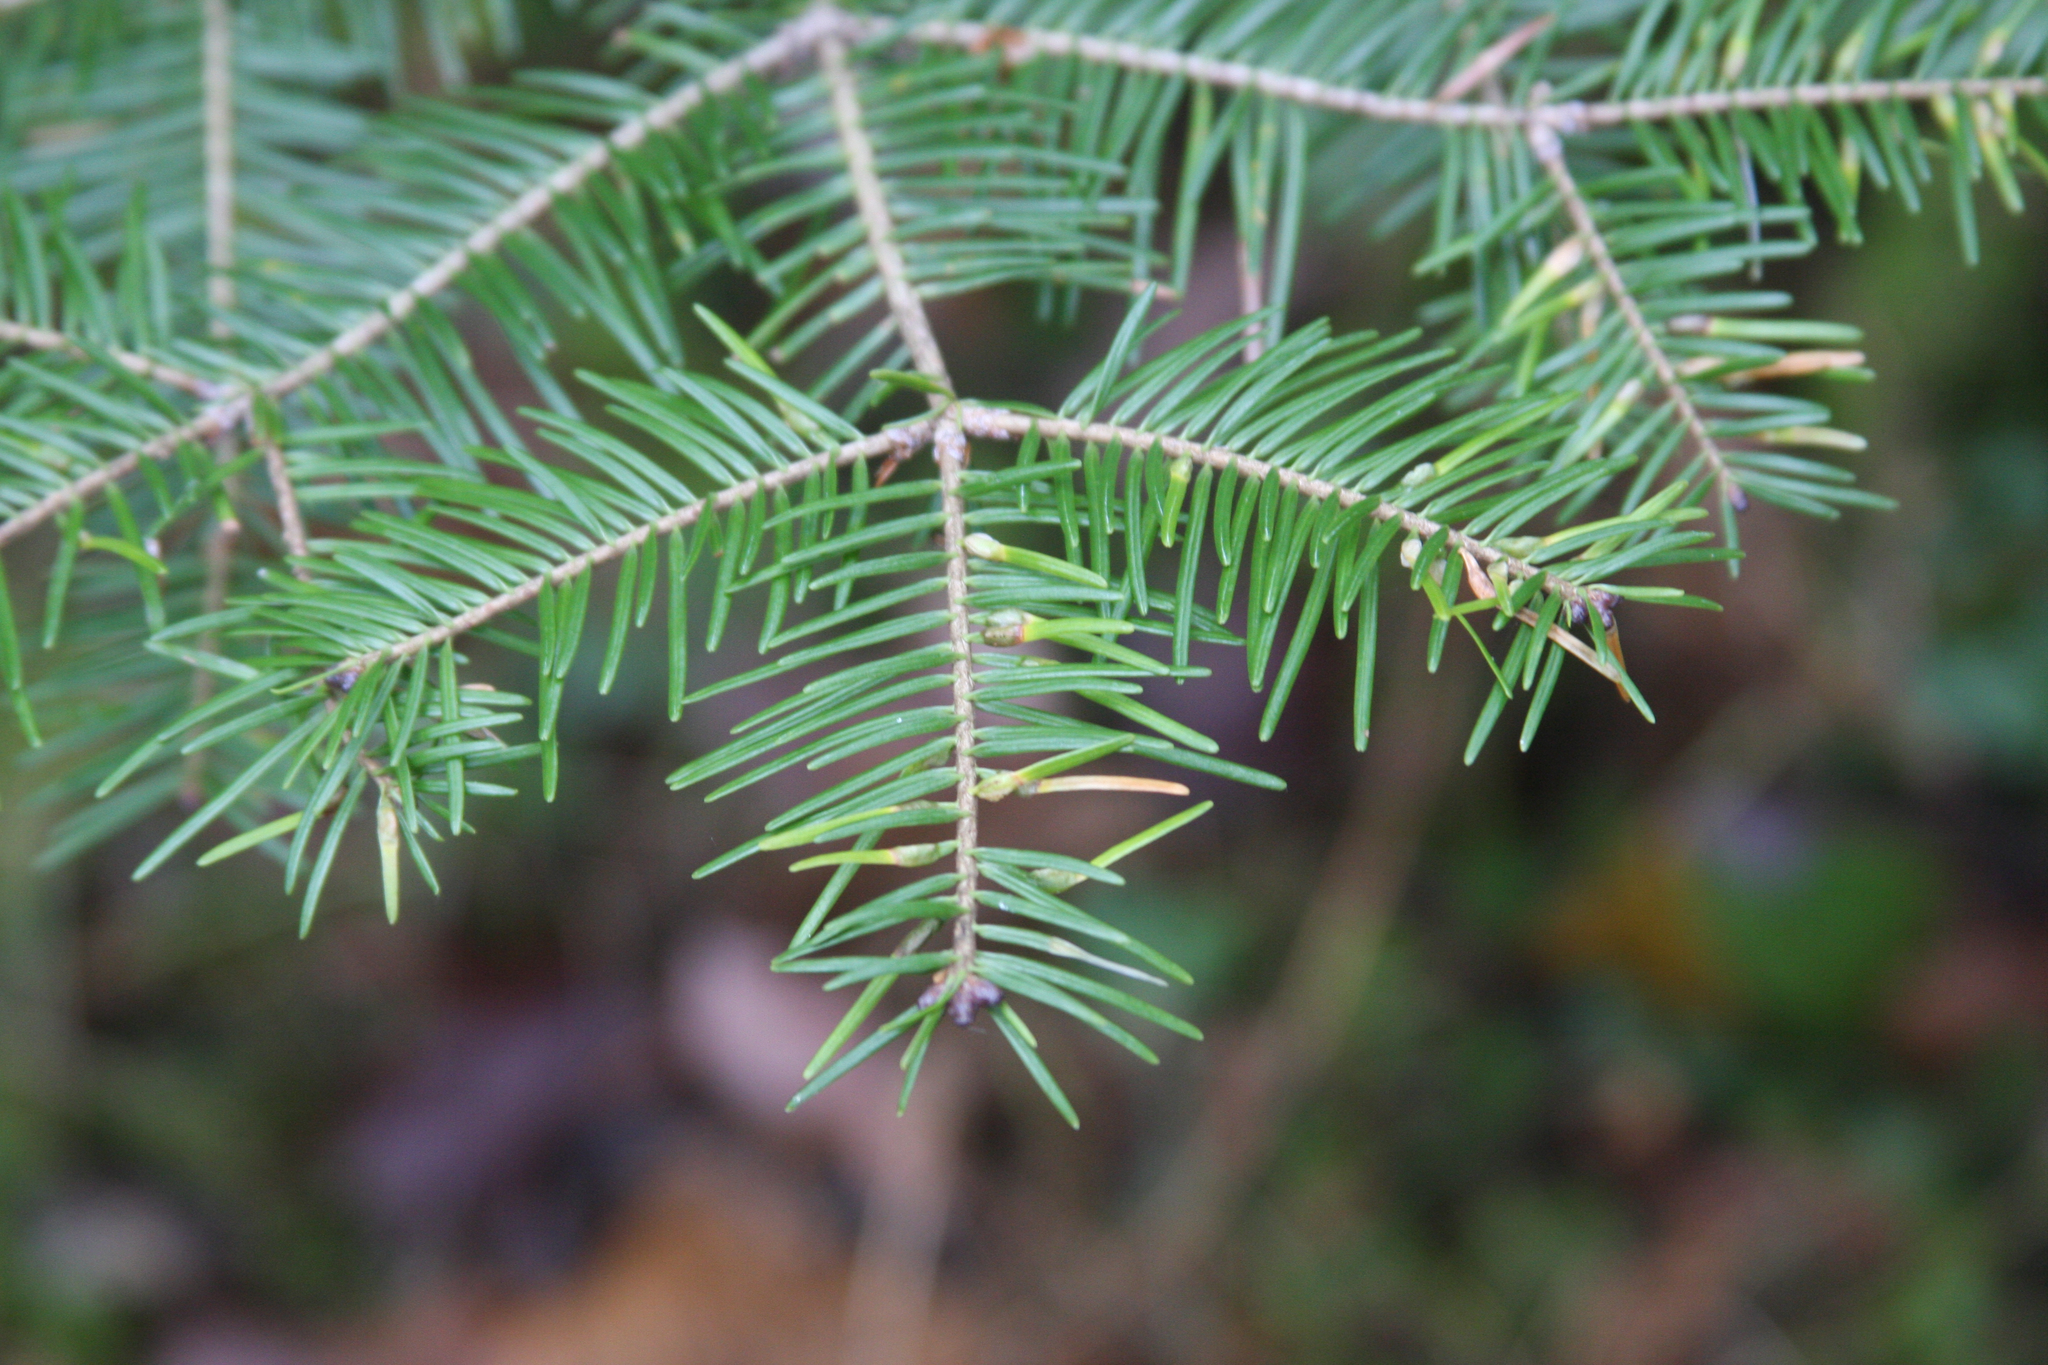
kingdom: Animalia
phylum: Arthropoda
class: Insecta
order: Diptera
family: Cecidomyiidae
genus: Paradiplosis
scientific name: Paradiplosis tumifex
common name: Gall midge
